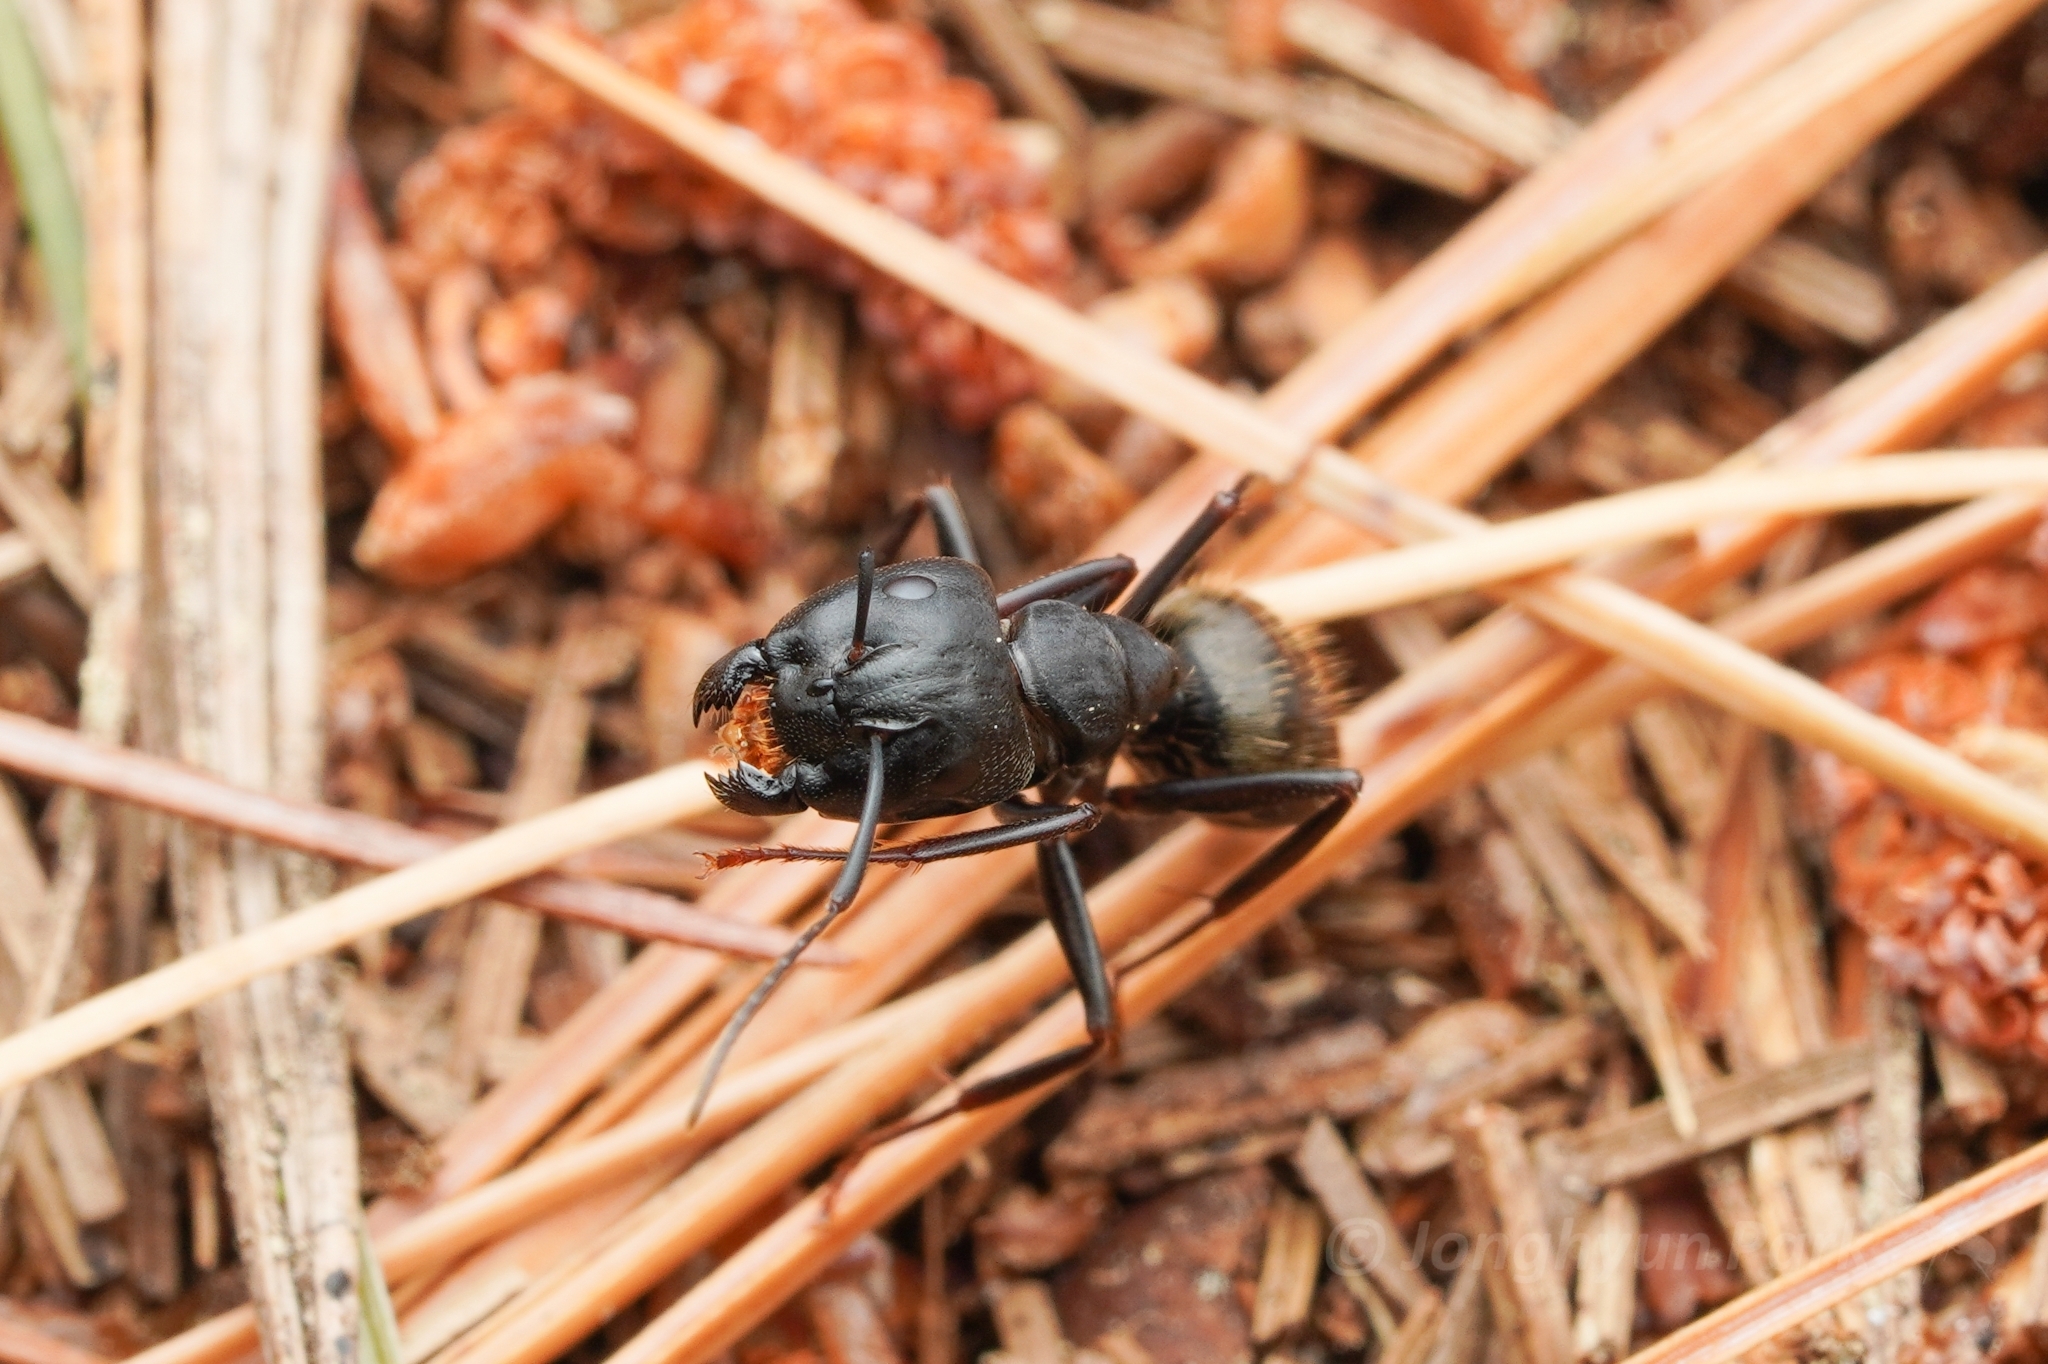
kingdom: Animalia
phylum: Arthropoda
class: Insecta
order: Hymenoptera
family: Formicidae
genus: Camponotus
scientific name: Camponotus pennsylvanicus
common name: Black carpenter ant
